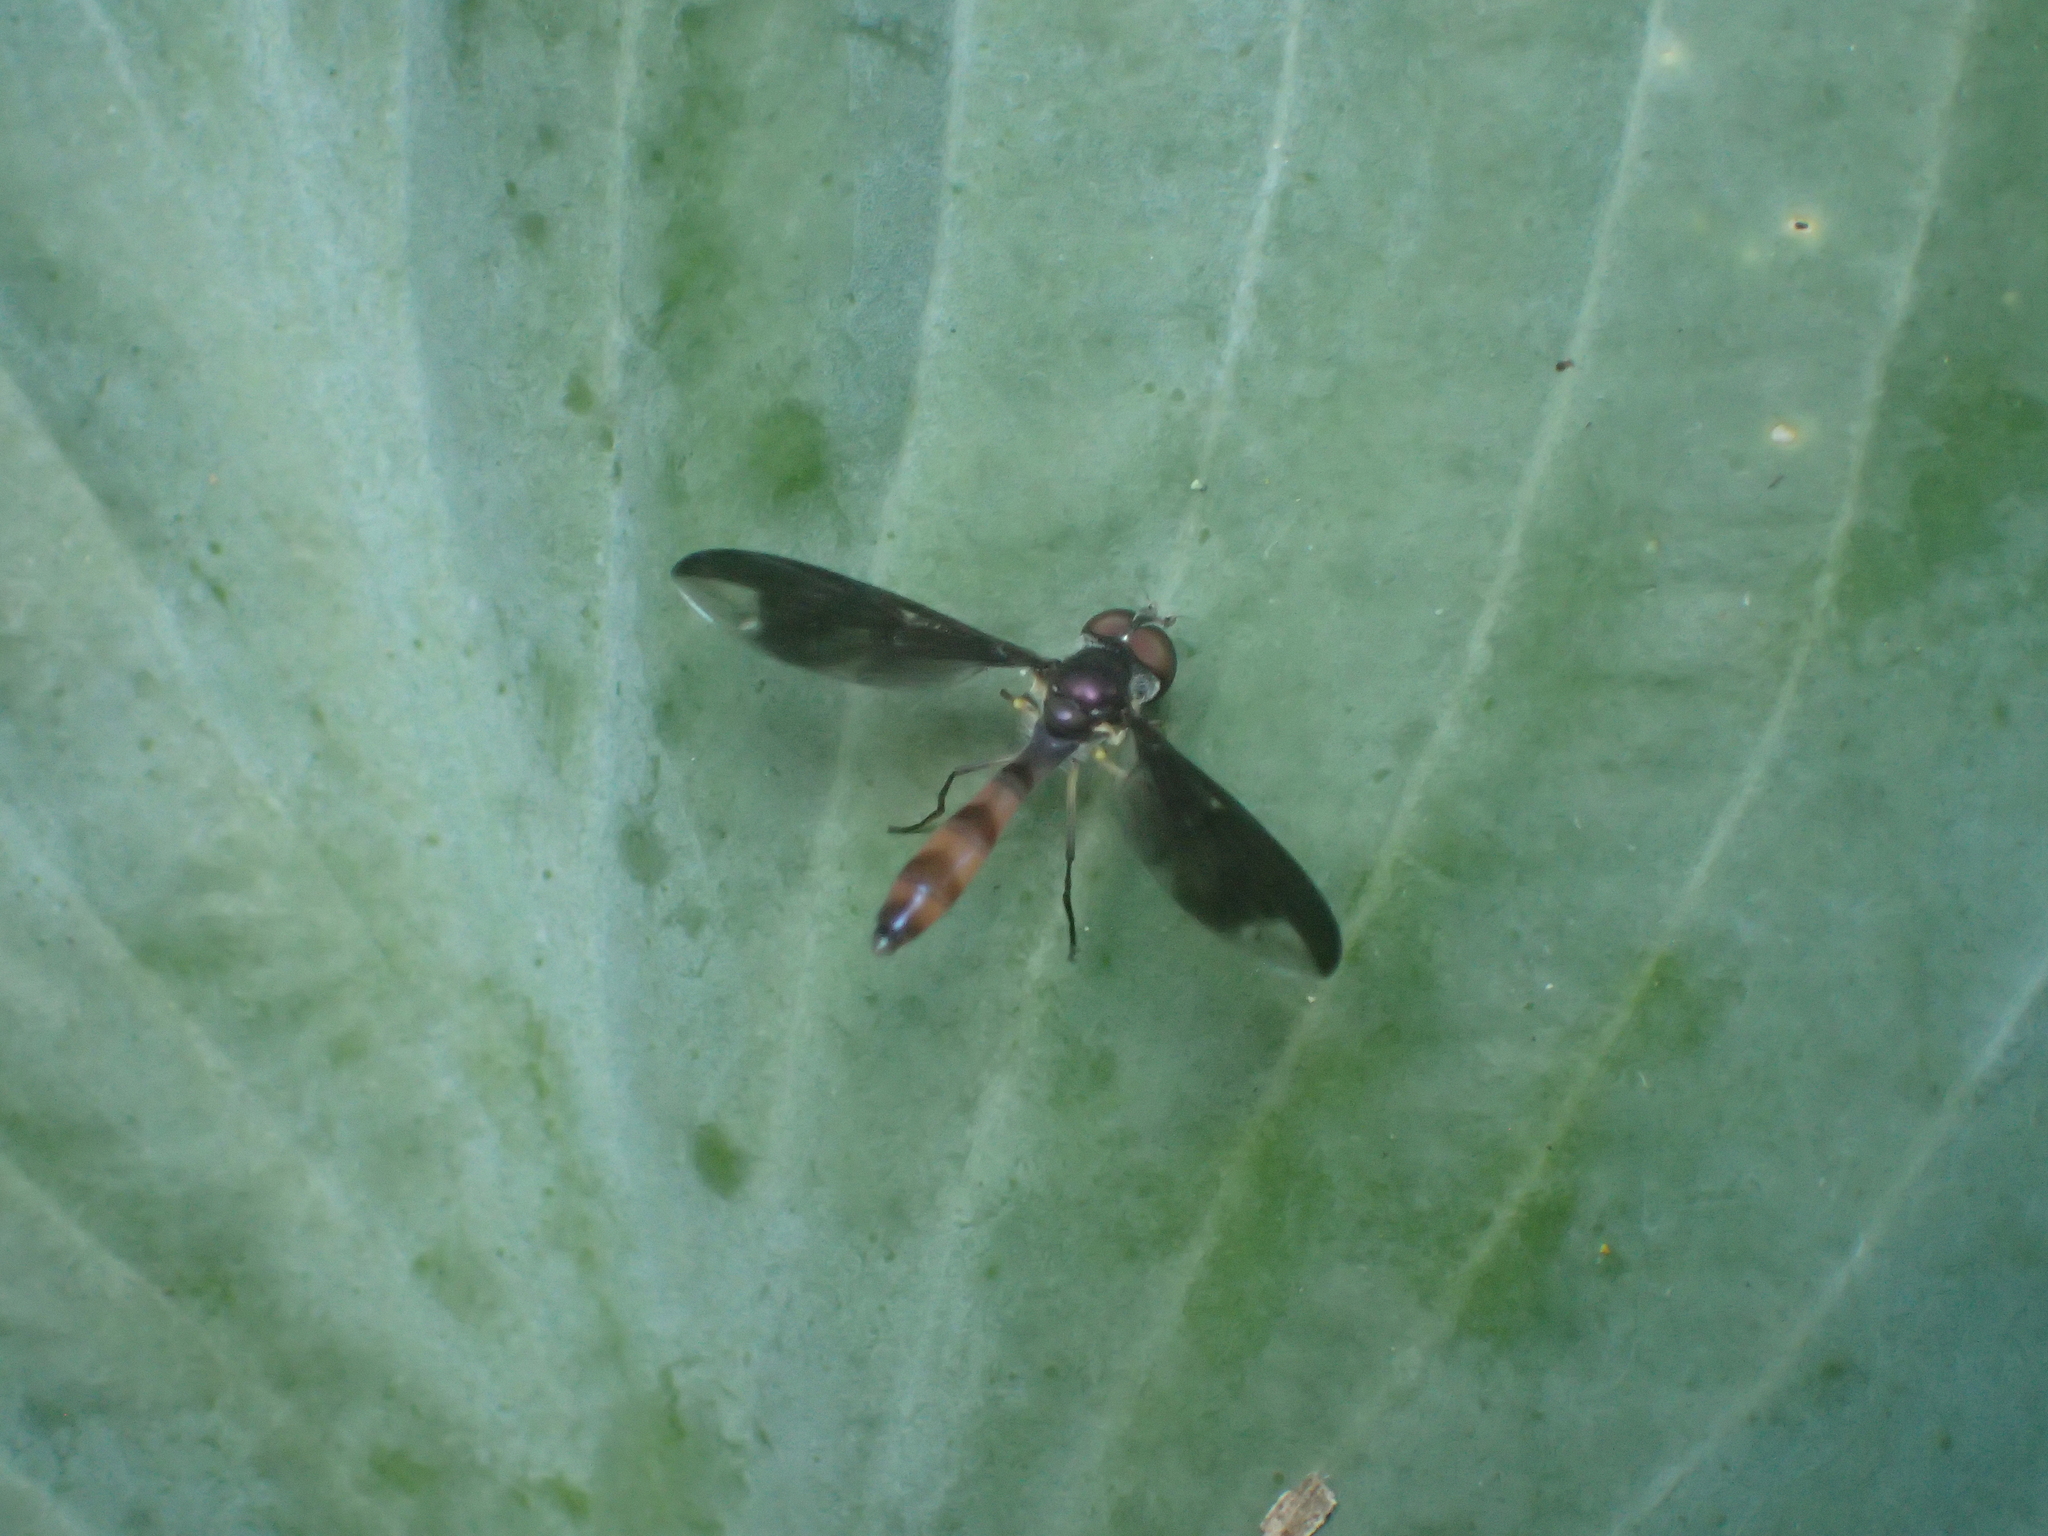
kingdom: Animalia
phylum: Arthropoda
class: Insecta
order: Diptera
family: Syrphidae
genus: Ocyptamus
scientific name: Ocyptamus fuscipennis
